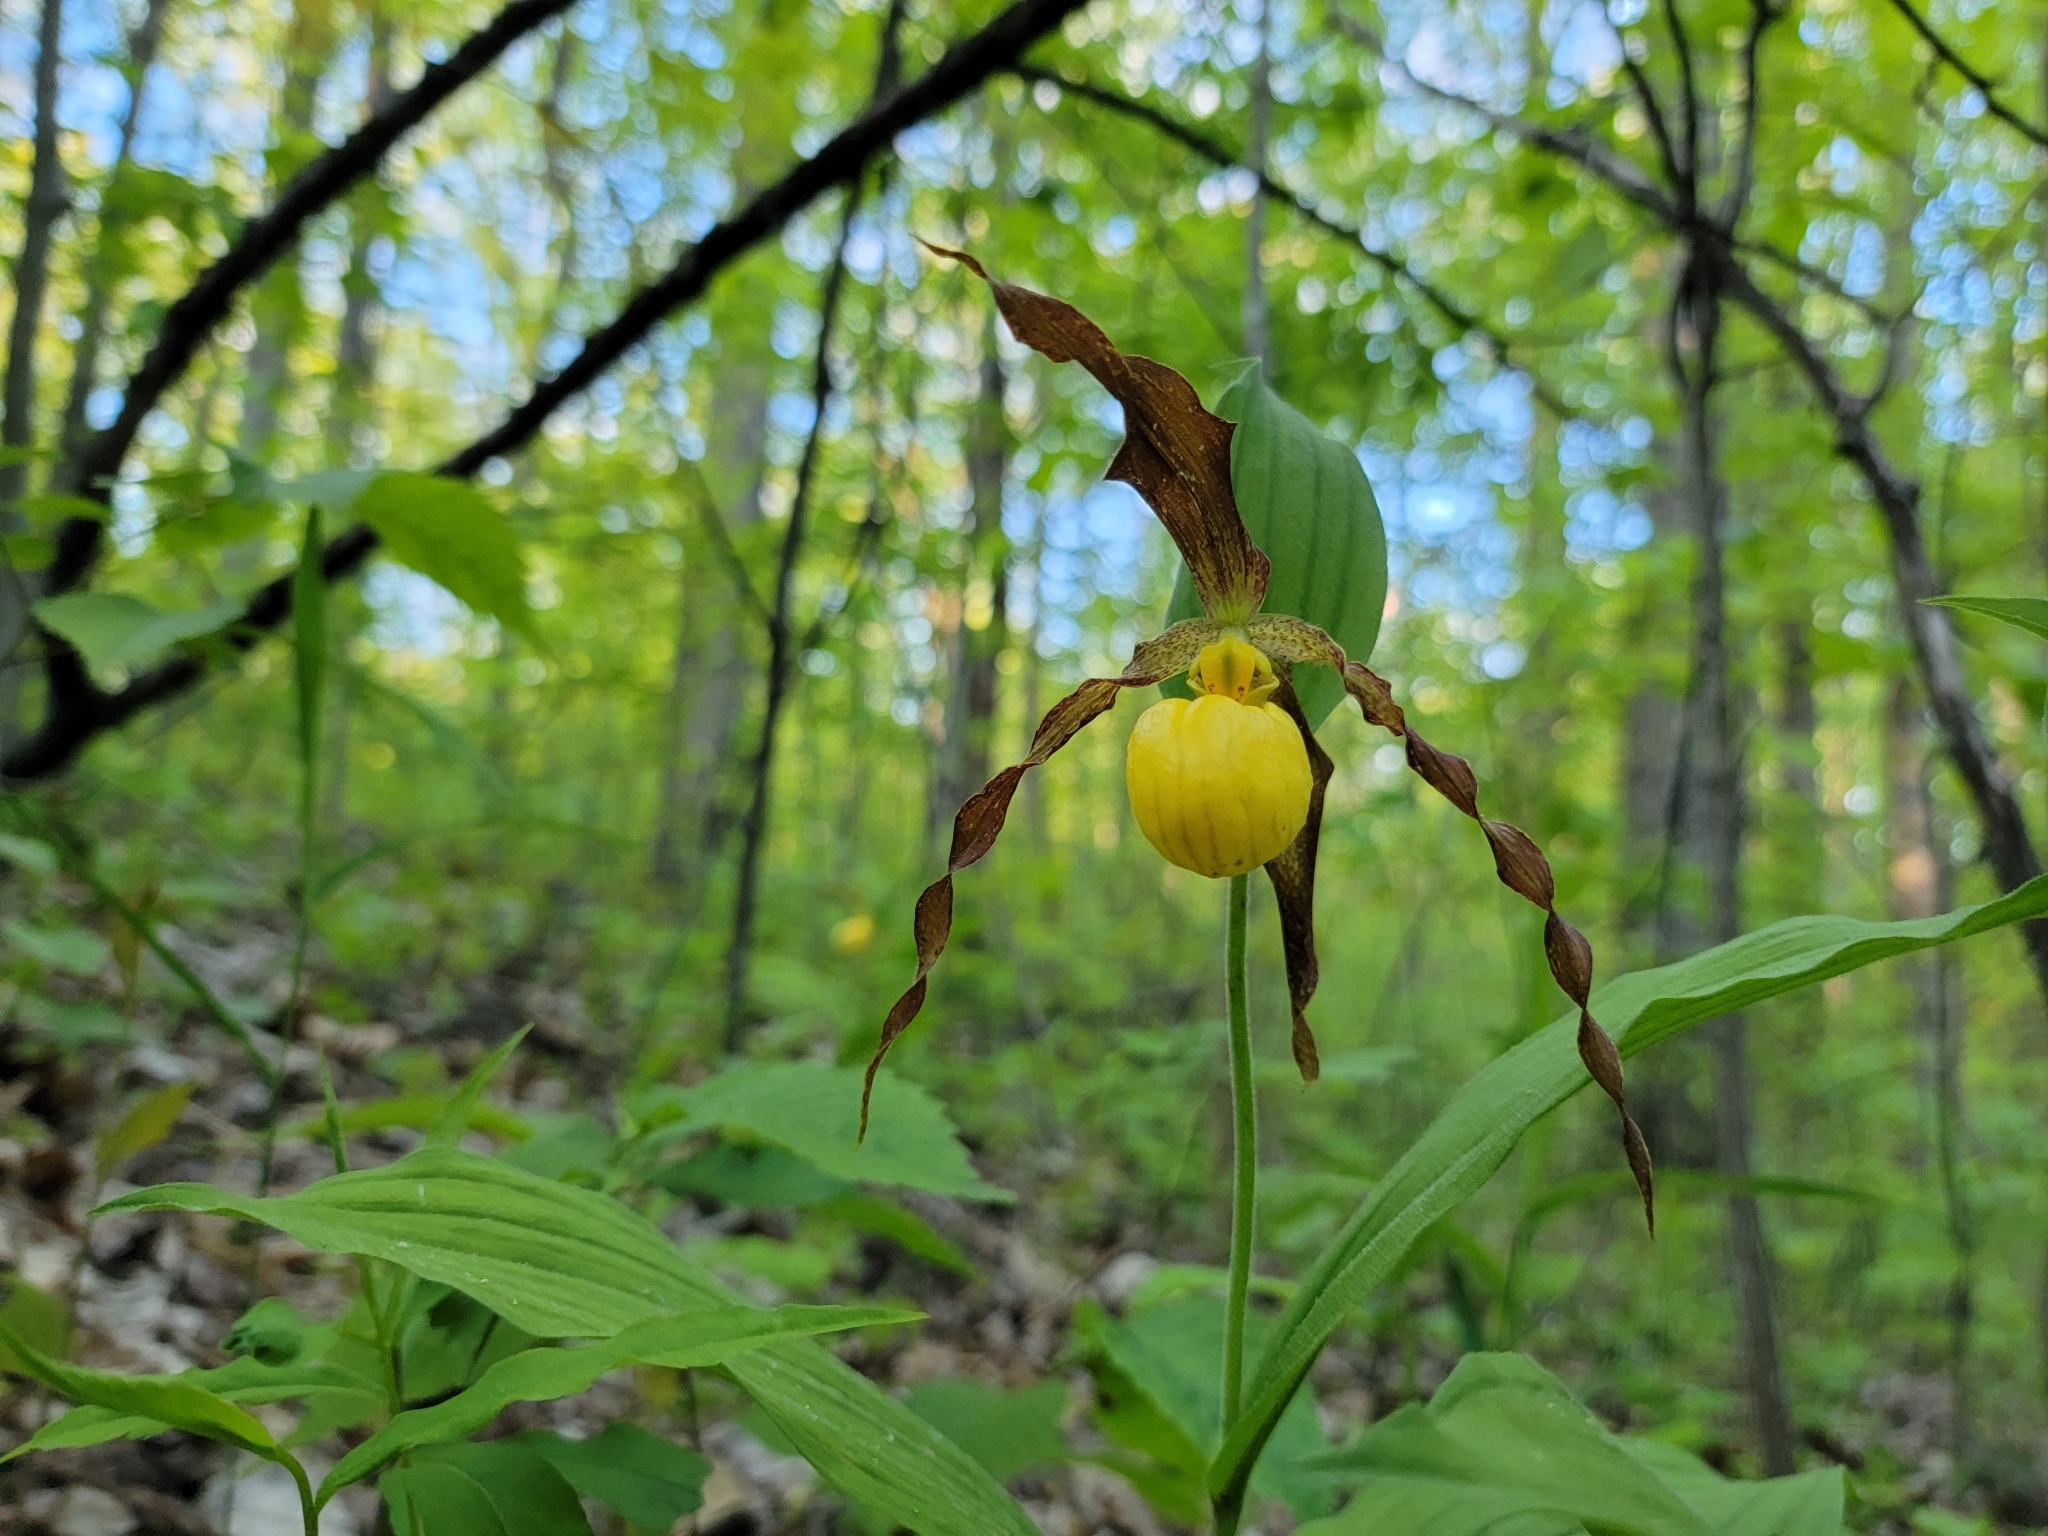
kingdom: Plantae
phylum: Tracheophyta
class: Liliopsida
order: Asparagales
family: Orchidaceae
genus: Cypripedium
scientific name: Cypripedium parviflorum
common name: American yellow lady's-slipper
